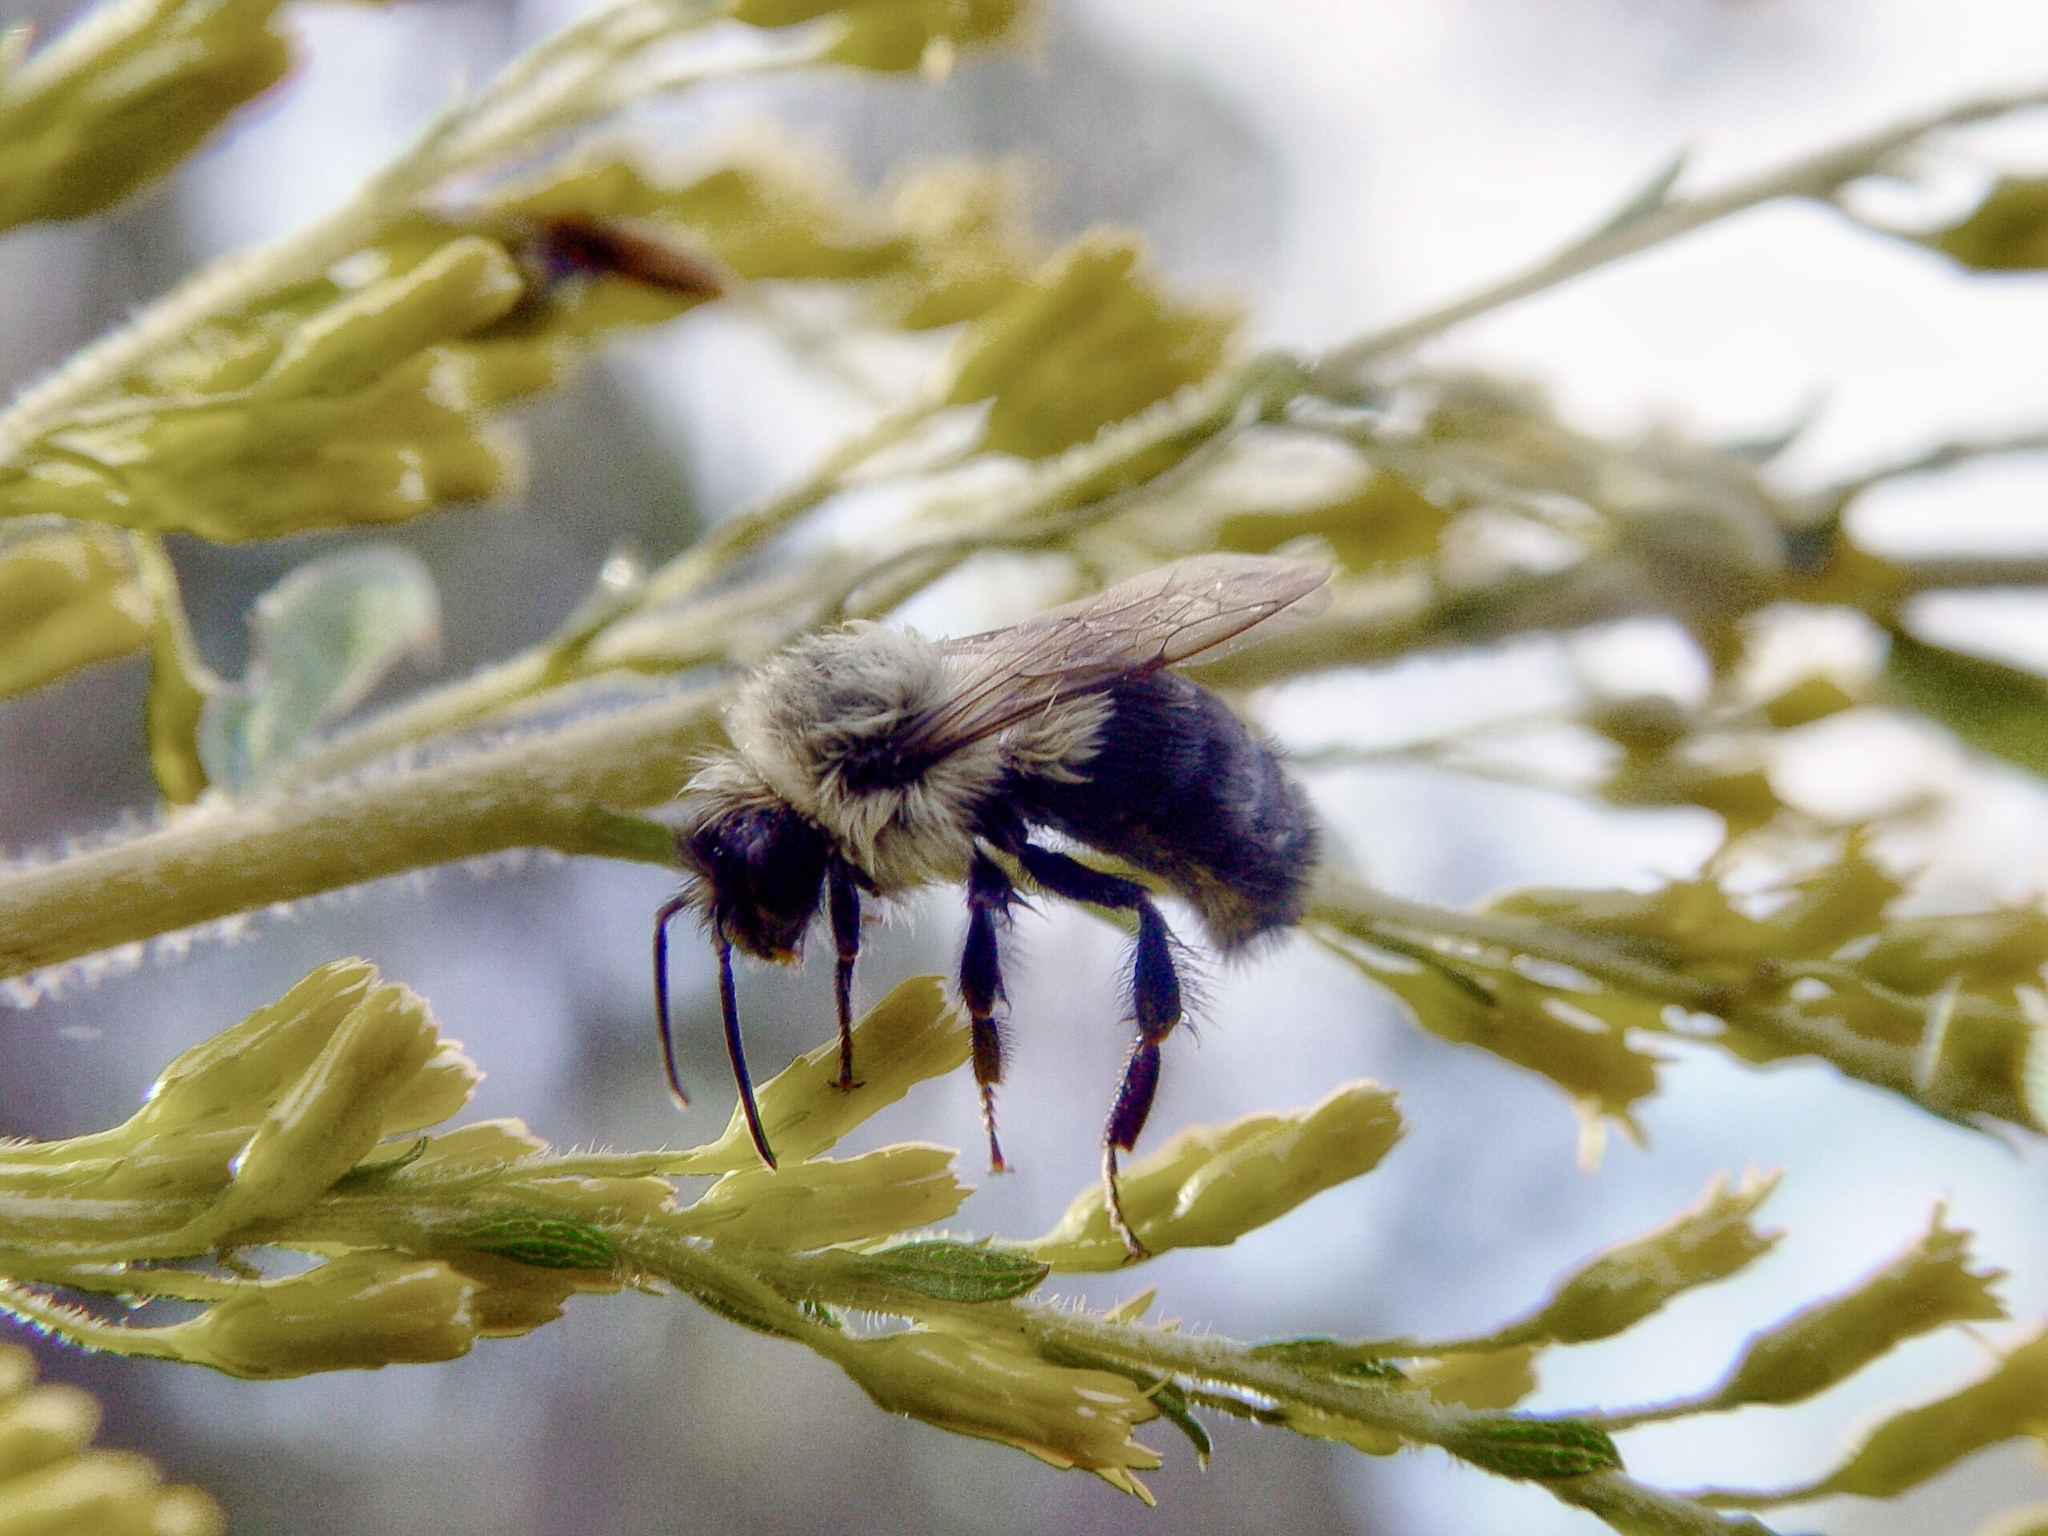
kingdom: Animalia
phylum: Arthropoda
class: Insecta
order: Hymenoptera
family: Apidae
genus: Bombus
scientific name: Bombus impatiens
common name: Common eastern bumble bee
